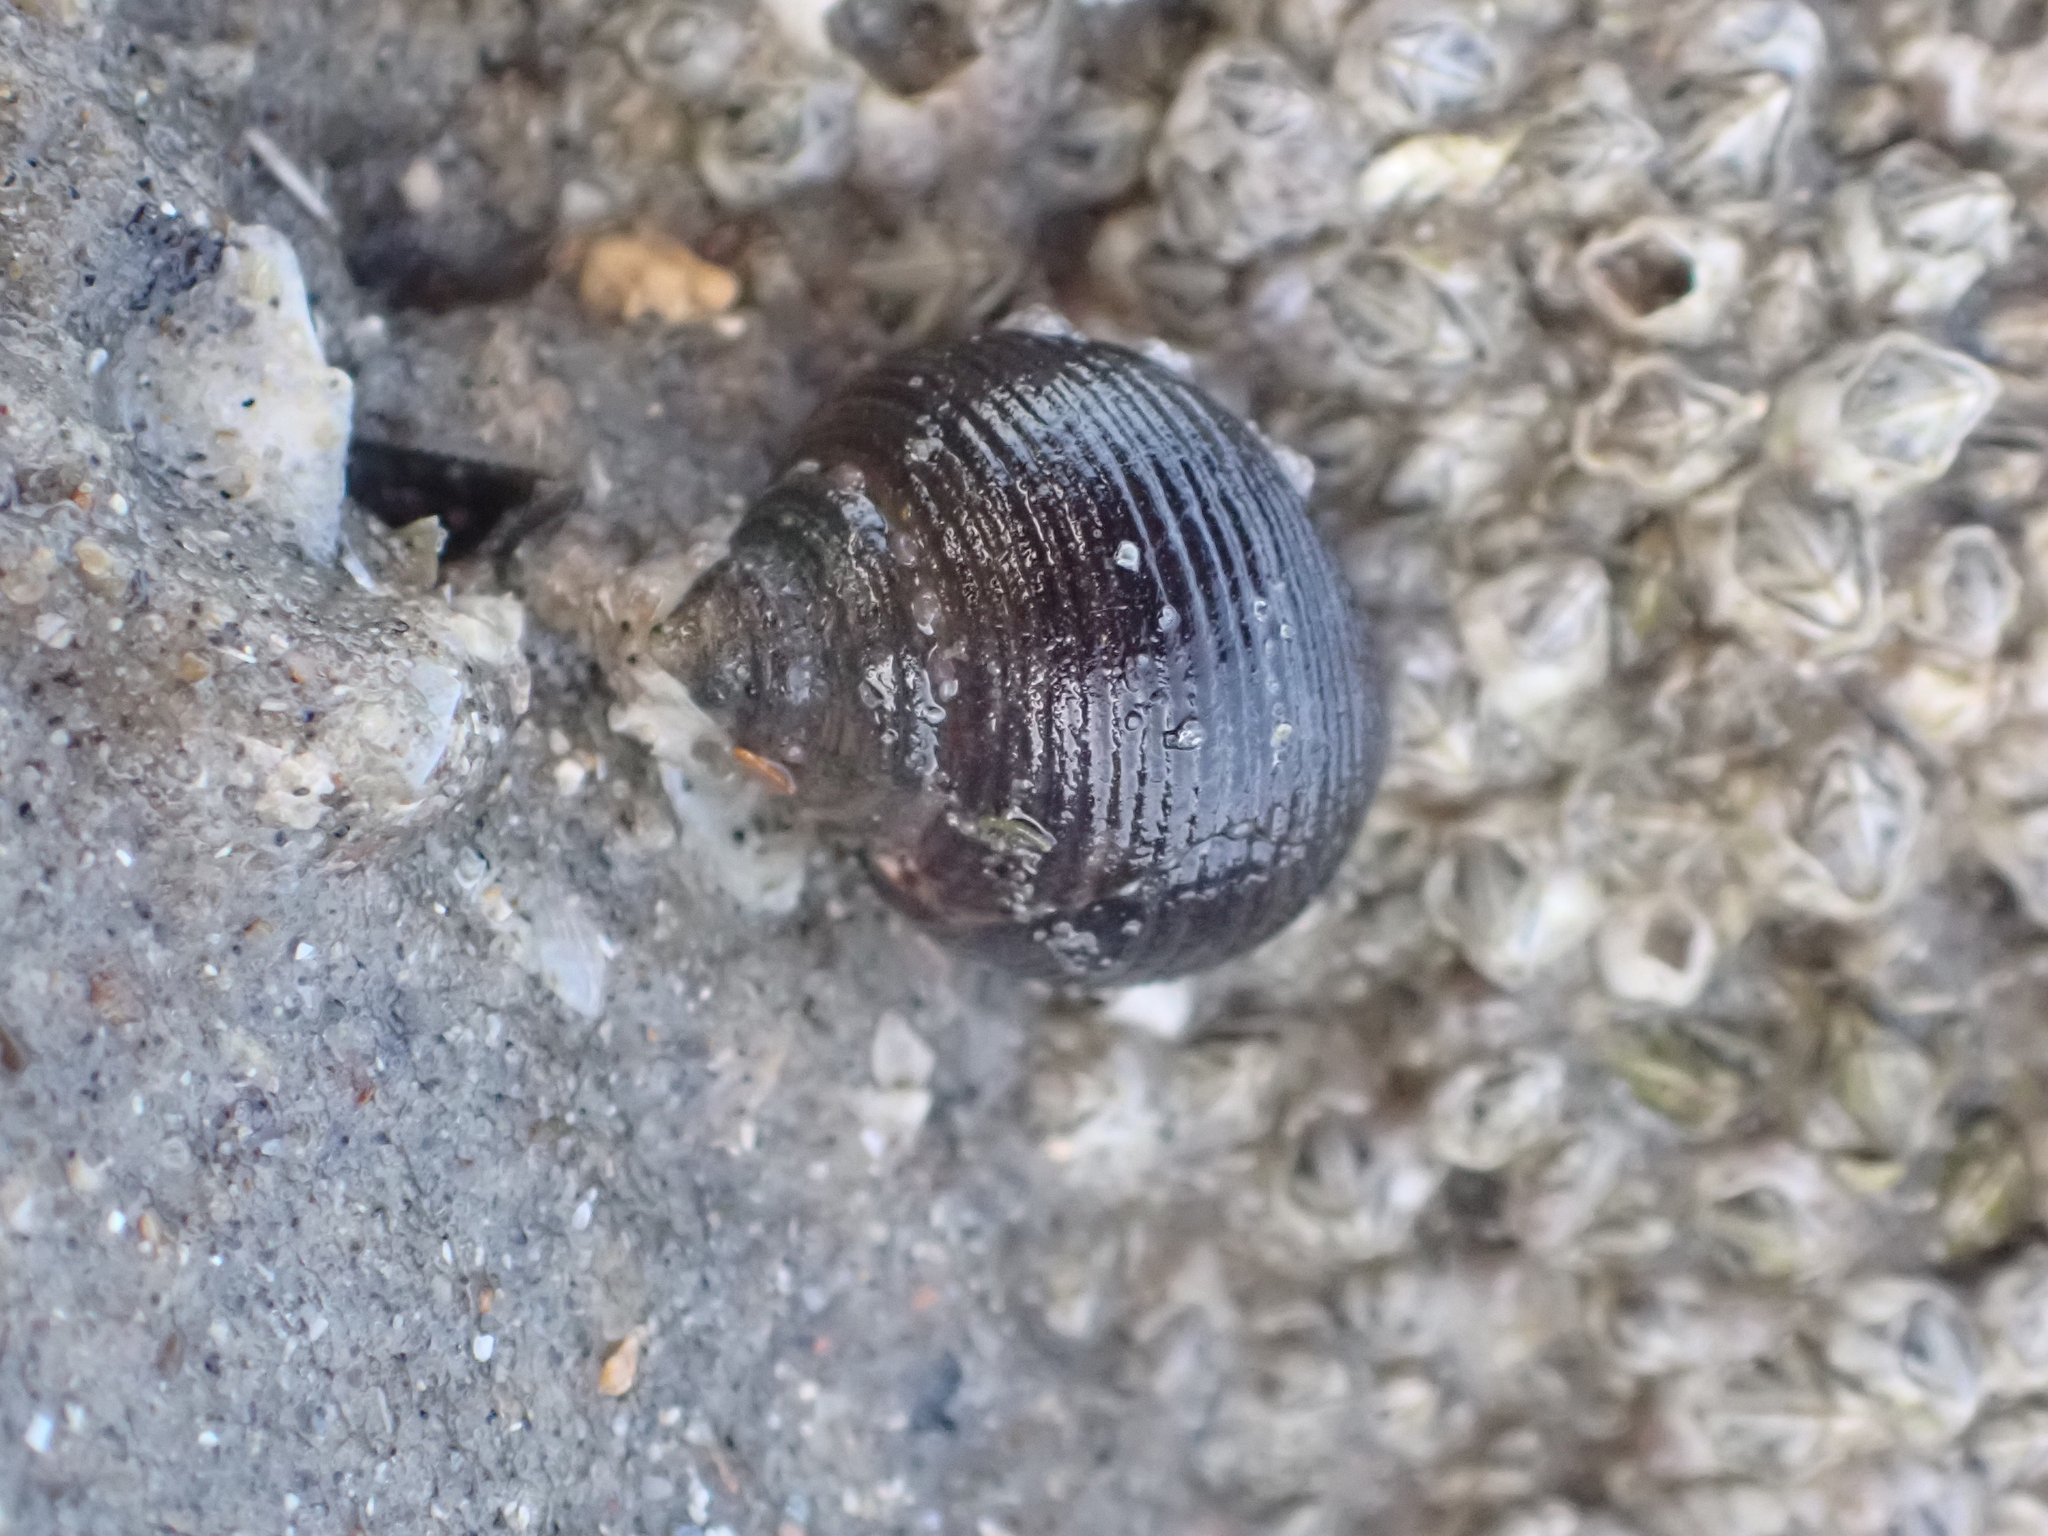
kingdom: Animalia
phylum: Mollusca
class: Gastropoda
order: Littorinimorpha
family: Littorinidae
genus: Littorina
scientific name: Littorina littorea
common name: Common periwinkle
